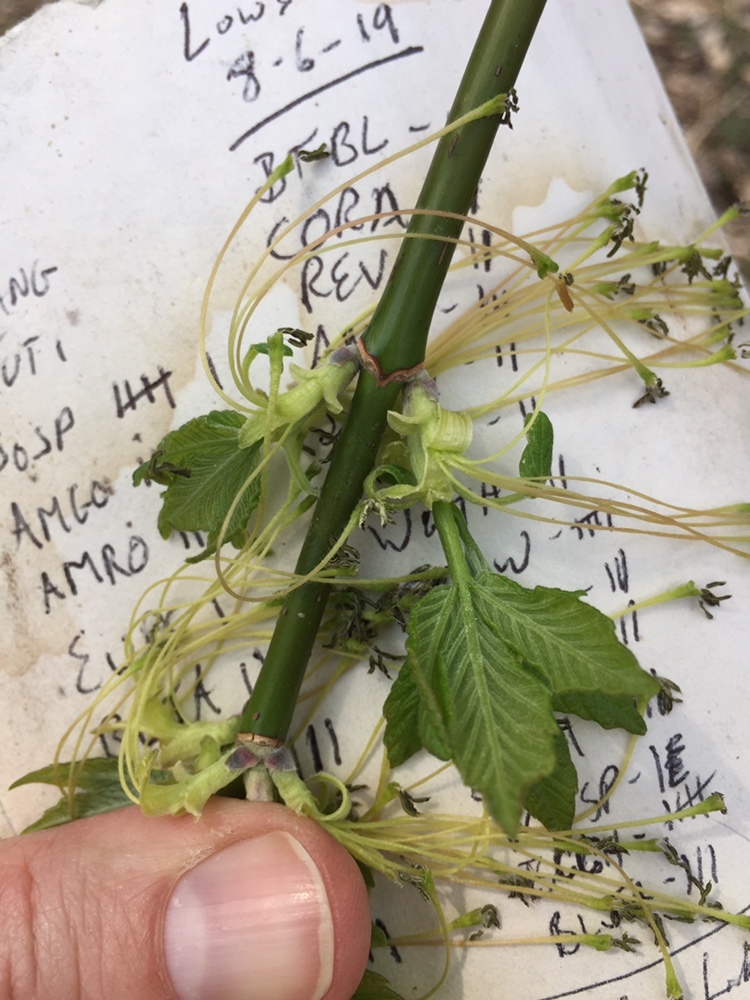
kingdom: Plantae
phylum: Tracheophyta
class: Magnoliopsida
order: Sapindales
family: Sapindaceae
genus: Acer
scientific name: Acer negundo
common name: Ashleaf maple
